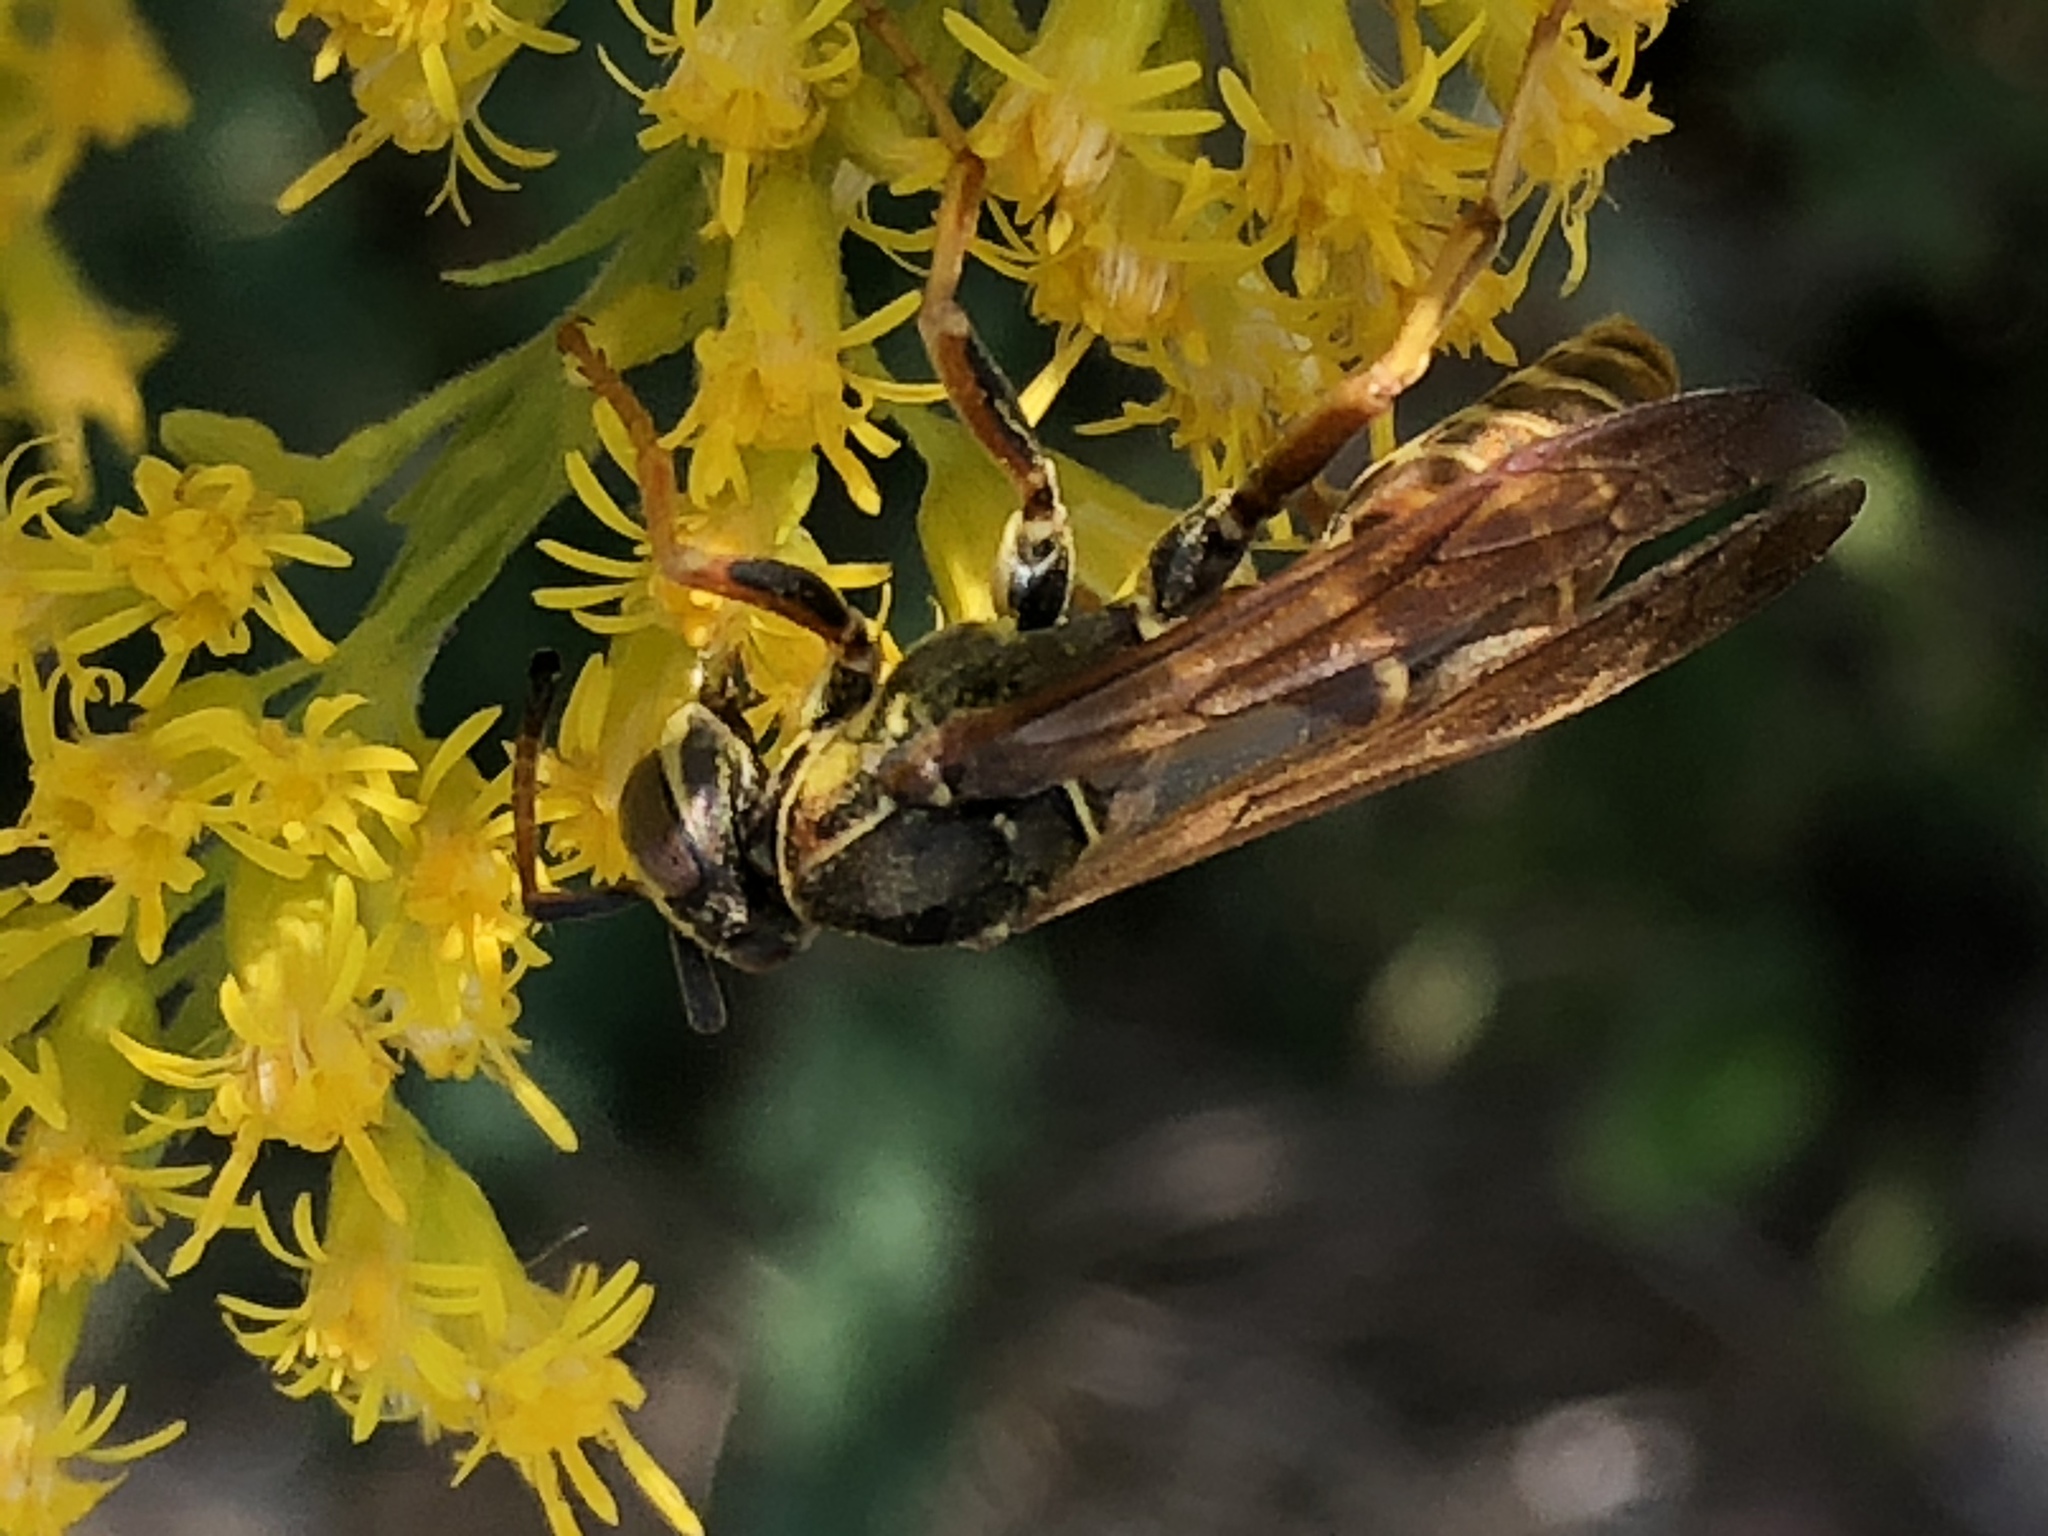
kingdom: Animalia
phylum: Arthropoda
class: Insecta
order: Hymenoptera
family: Eumenidae
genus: Polistes
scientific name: Polistes fuscatus
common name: Dark paper wasp
